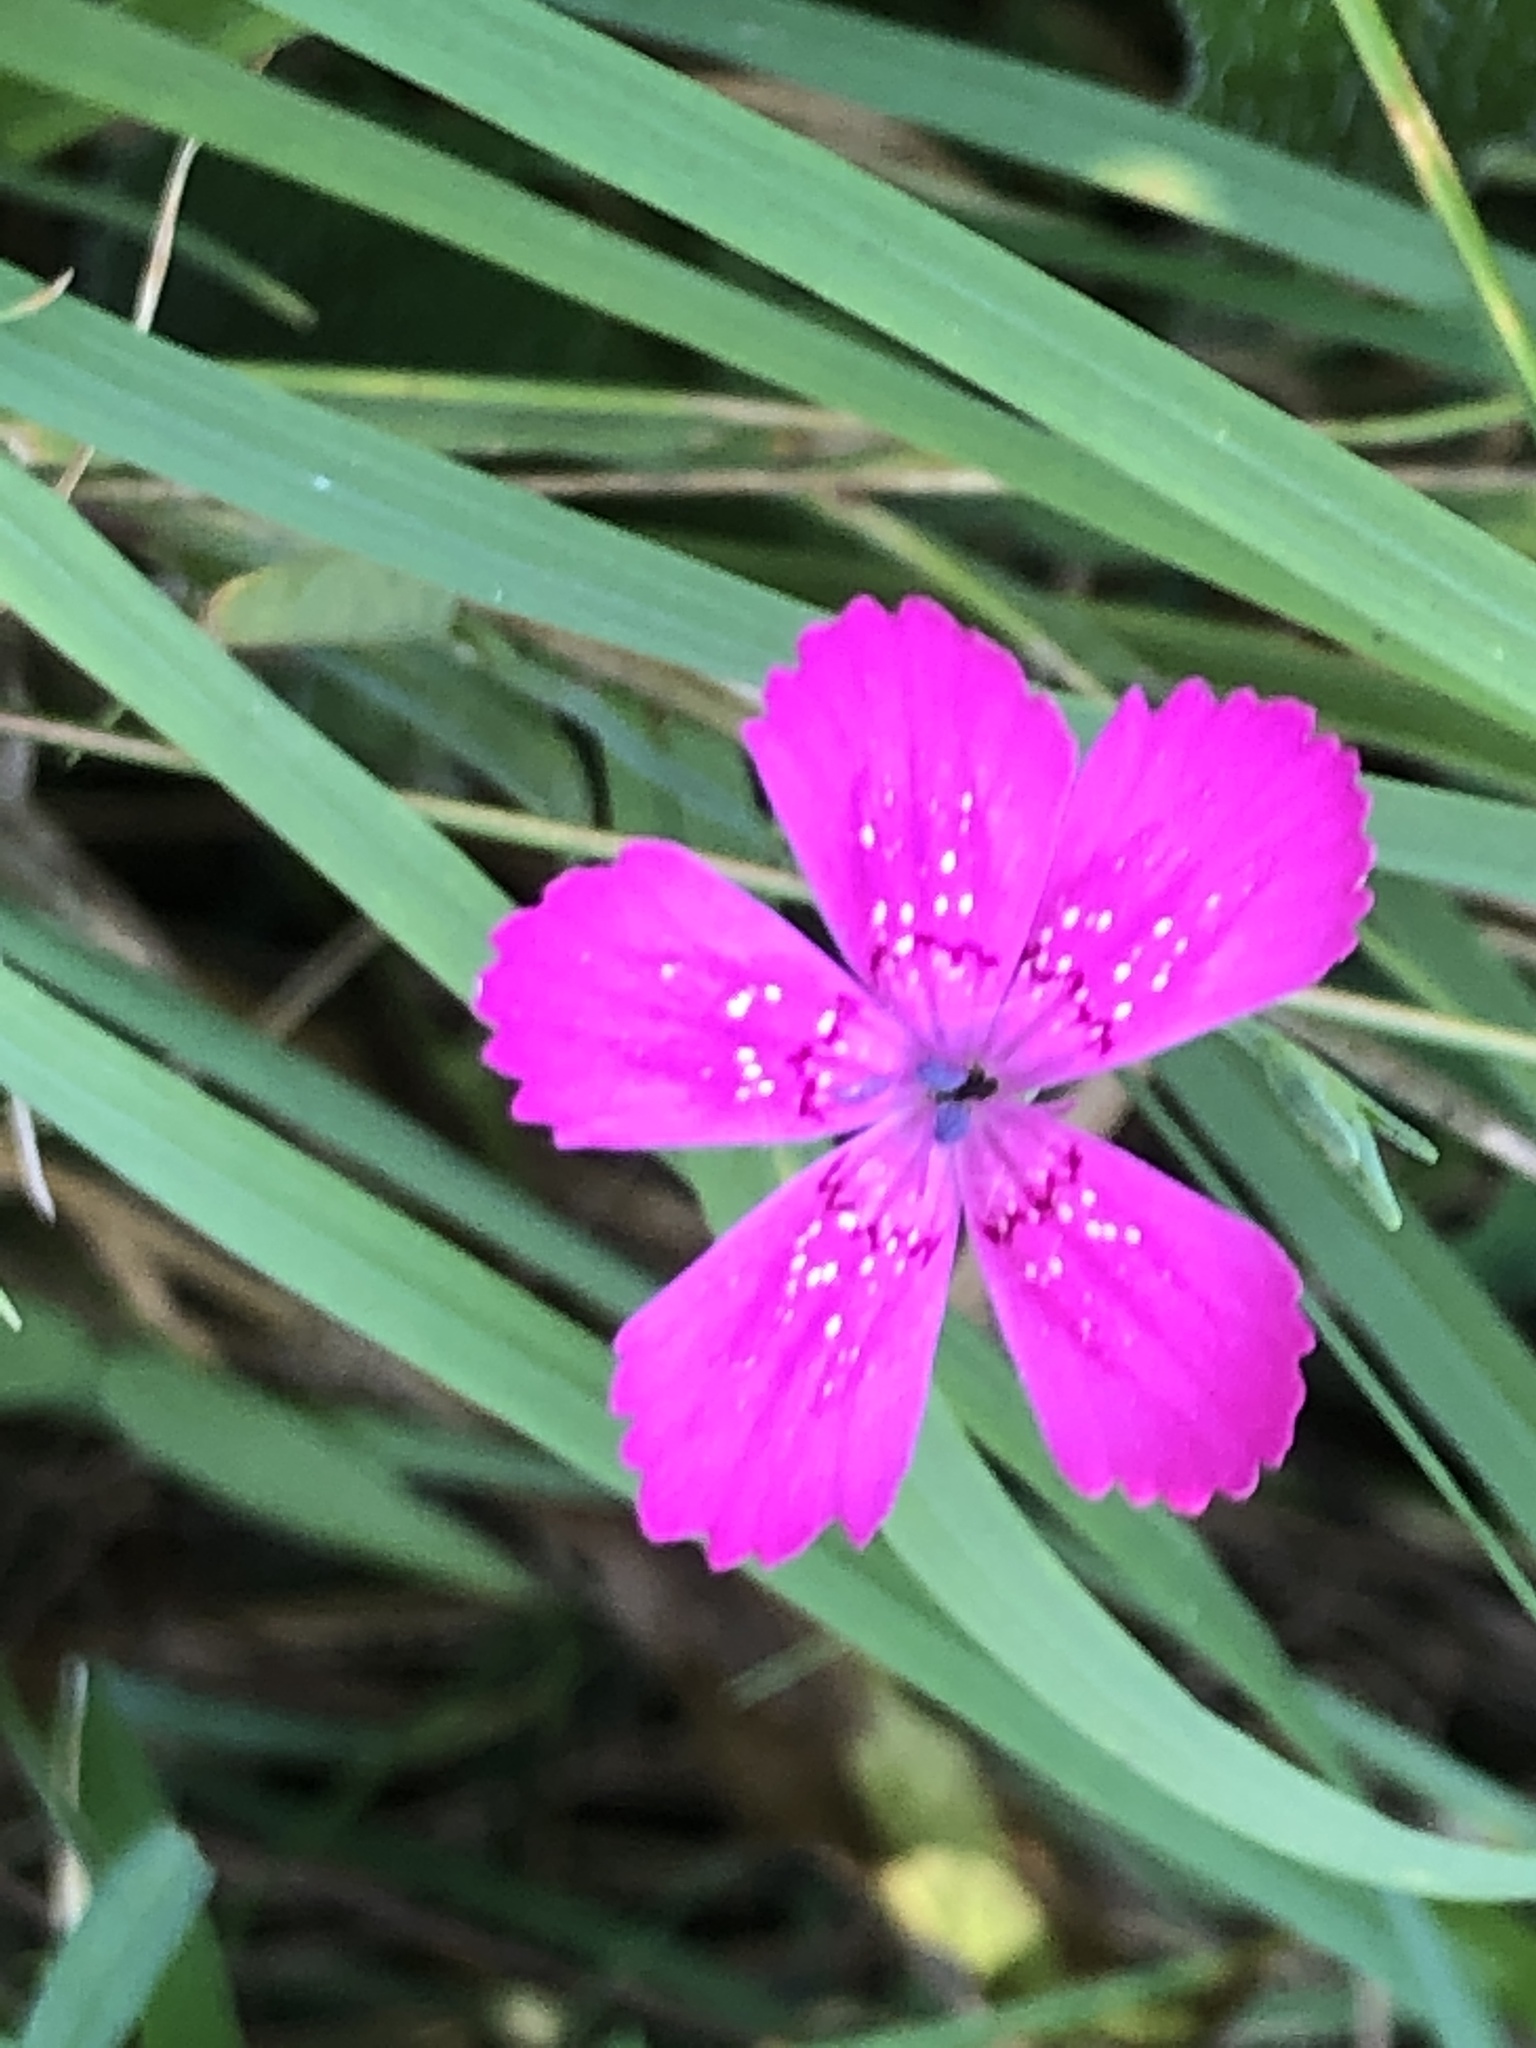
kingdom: Plantae
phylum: Tracheophyta
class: Magnoliopsida
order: Caryophyllales
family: Caryophyllaceae
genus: Dianthus
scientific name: Dianthus deltoides
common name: Maiden pink
